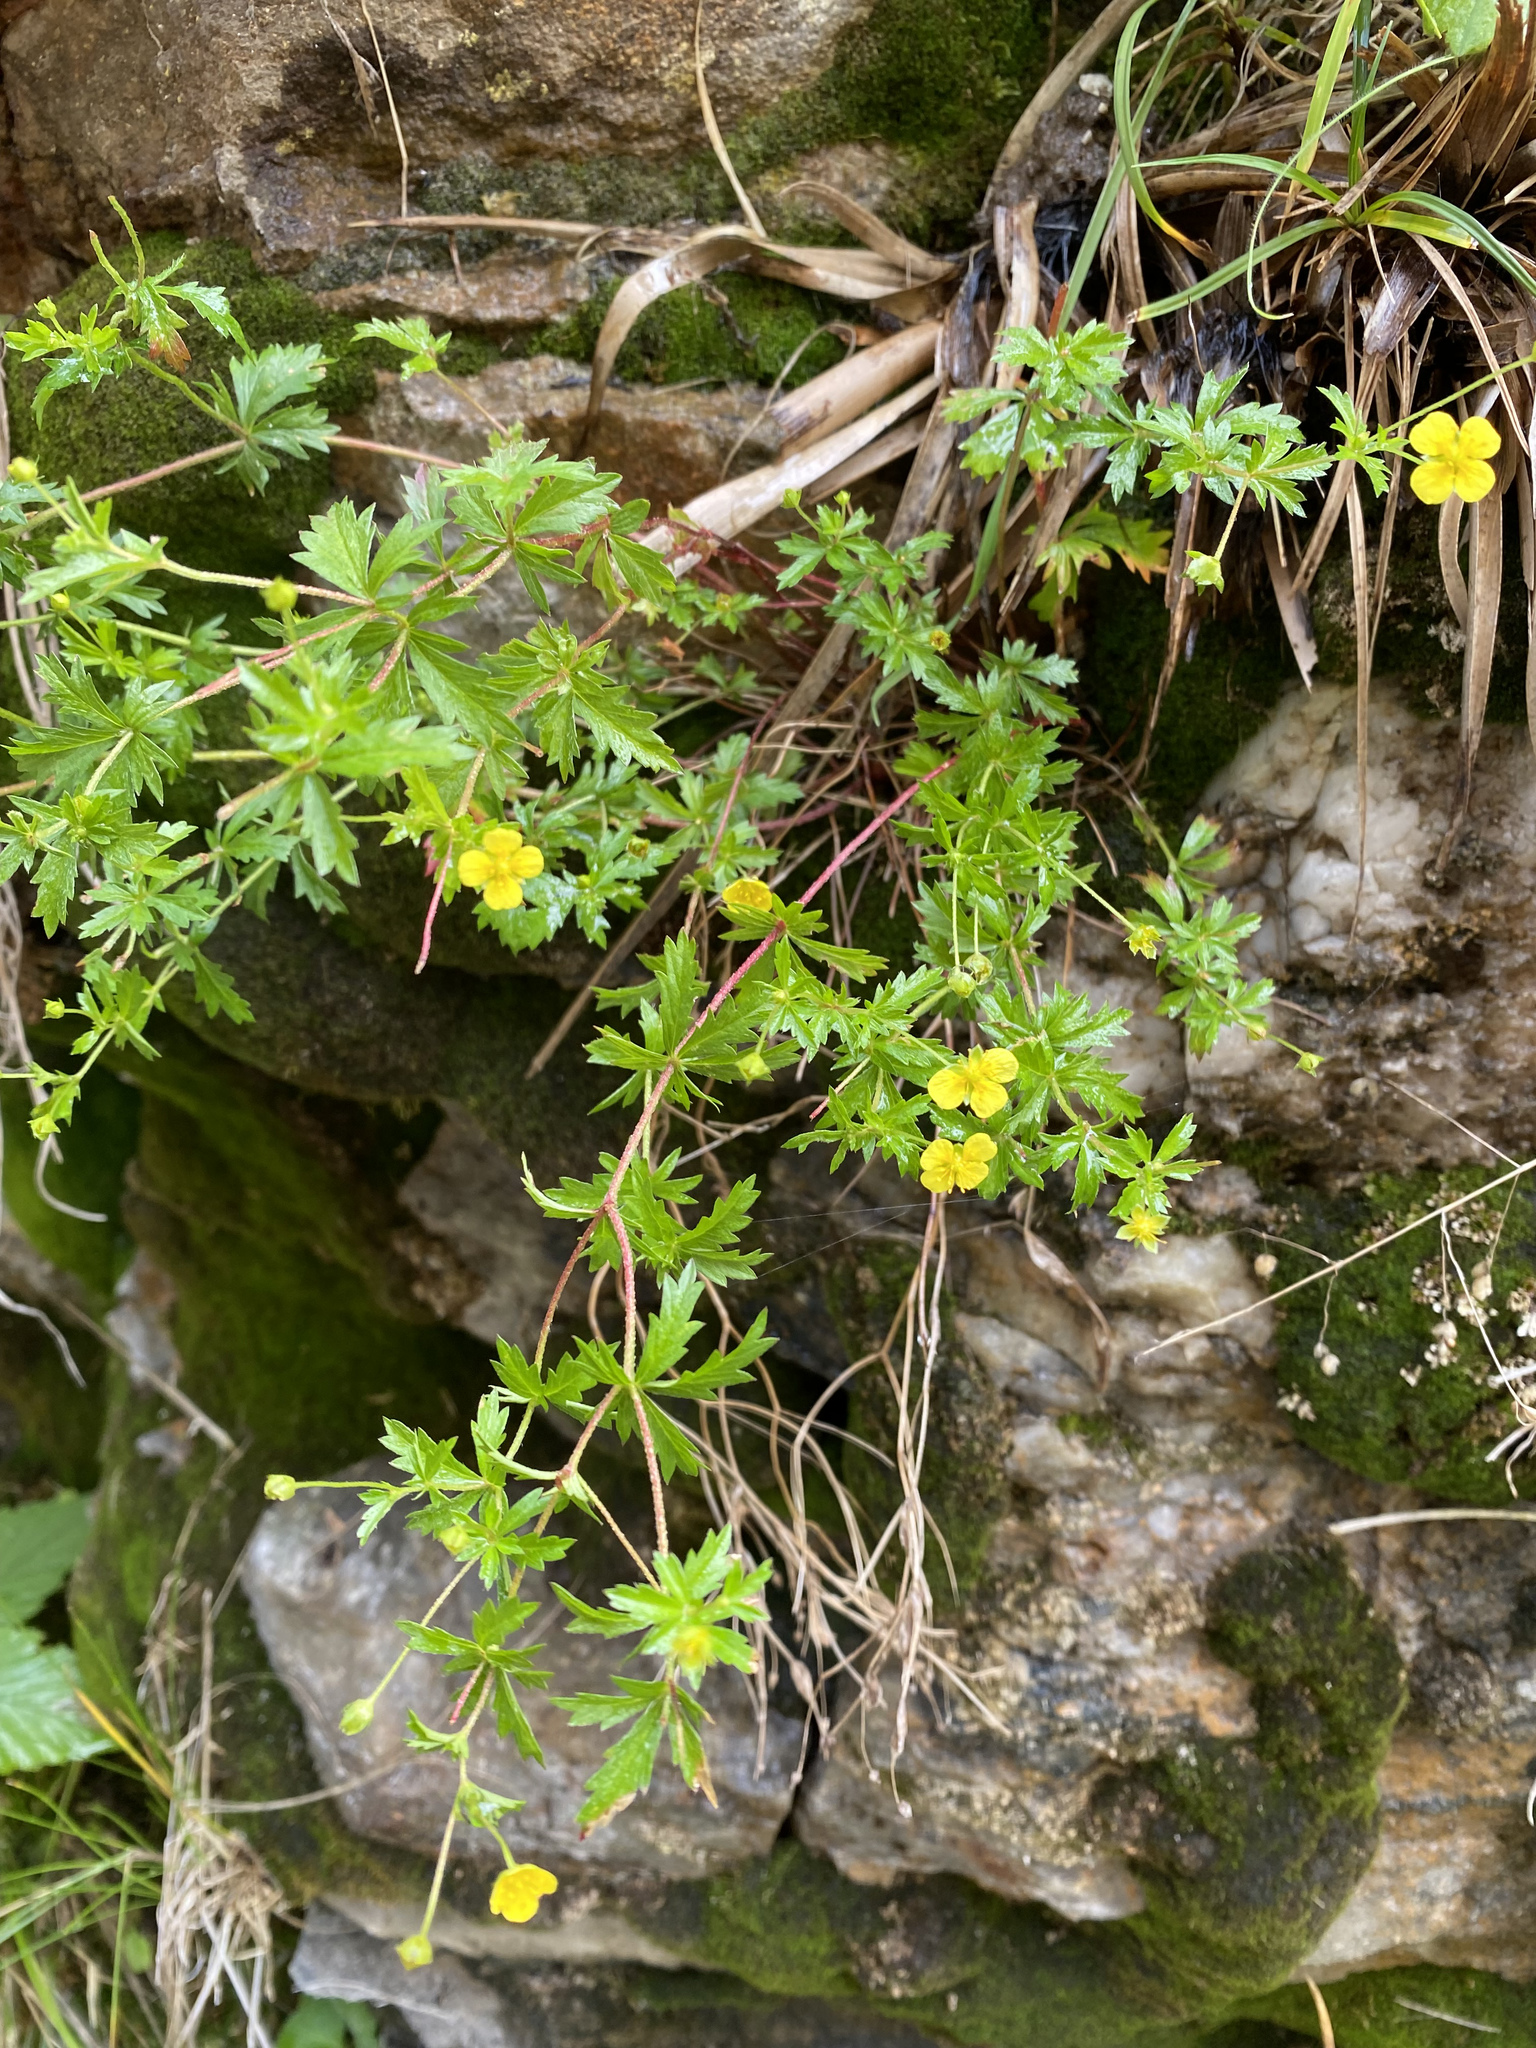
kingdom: Plantae
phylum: Tracheophyta
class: Magnoliopsida
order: Rosales
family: Rosaceae
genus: Potentilla
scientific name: Potentilla erecta
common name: Tormentil
